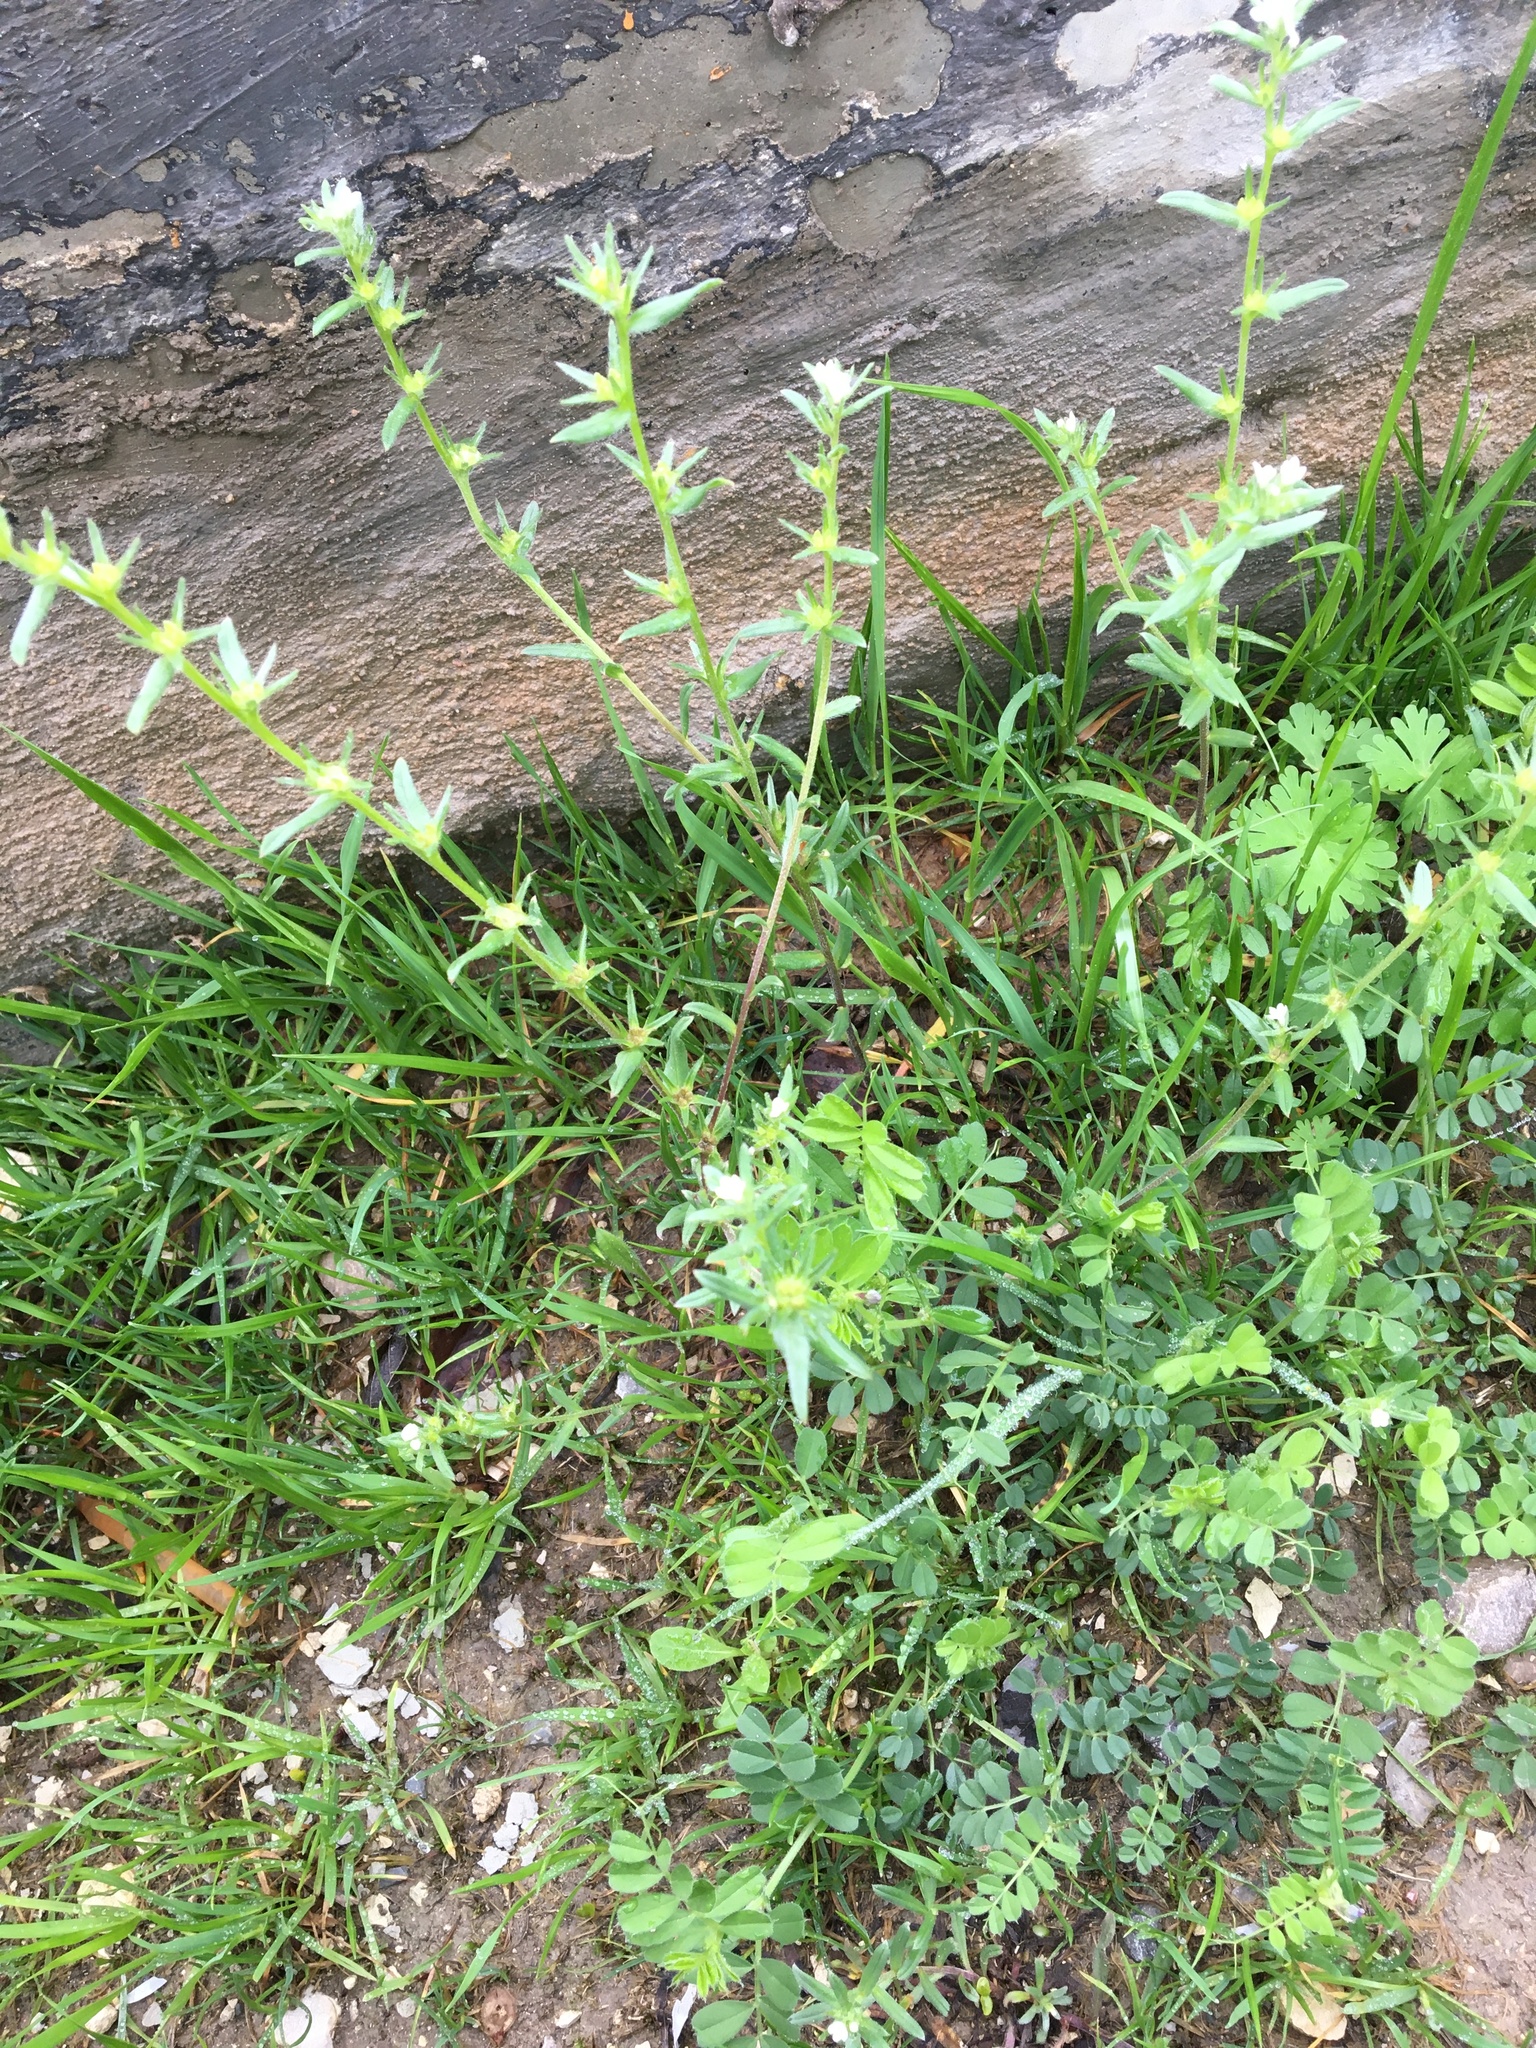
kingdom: Plantae
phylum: Tracheophyta
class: Magnoliopsida
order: Boraginales
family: Boraginaceae
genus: Buglossoides
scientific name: Buglossoides arvensis
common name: Corn gromwell
